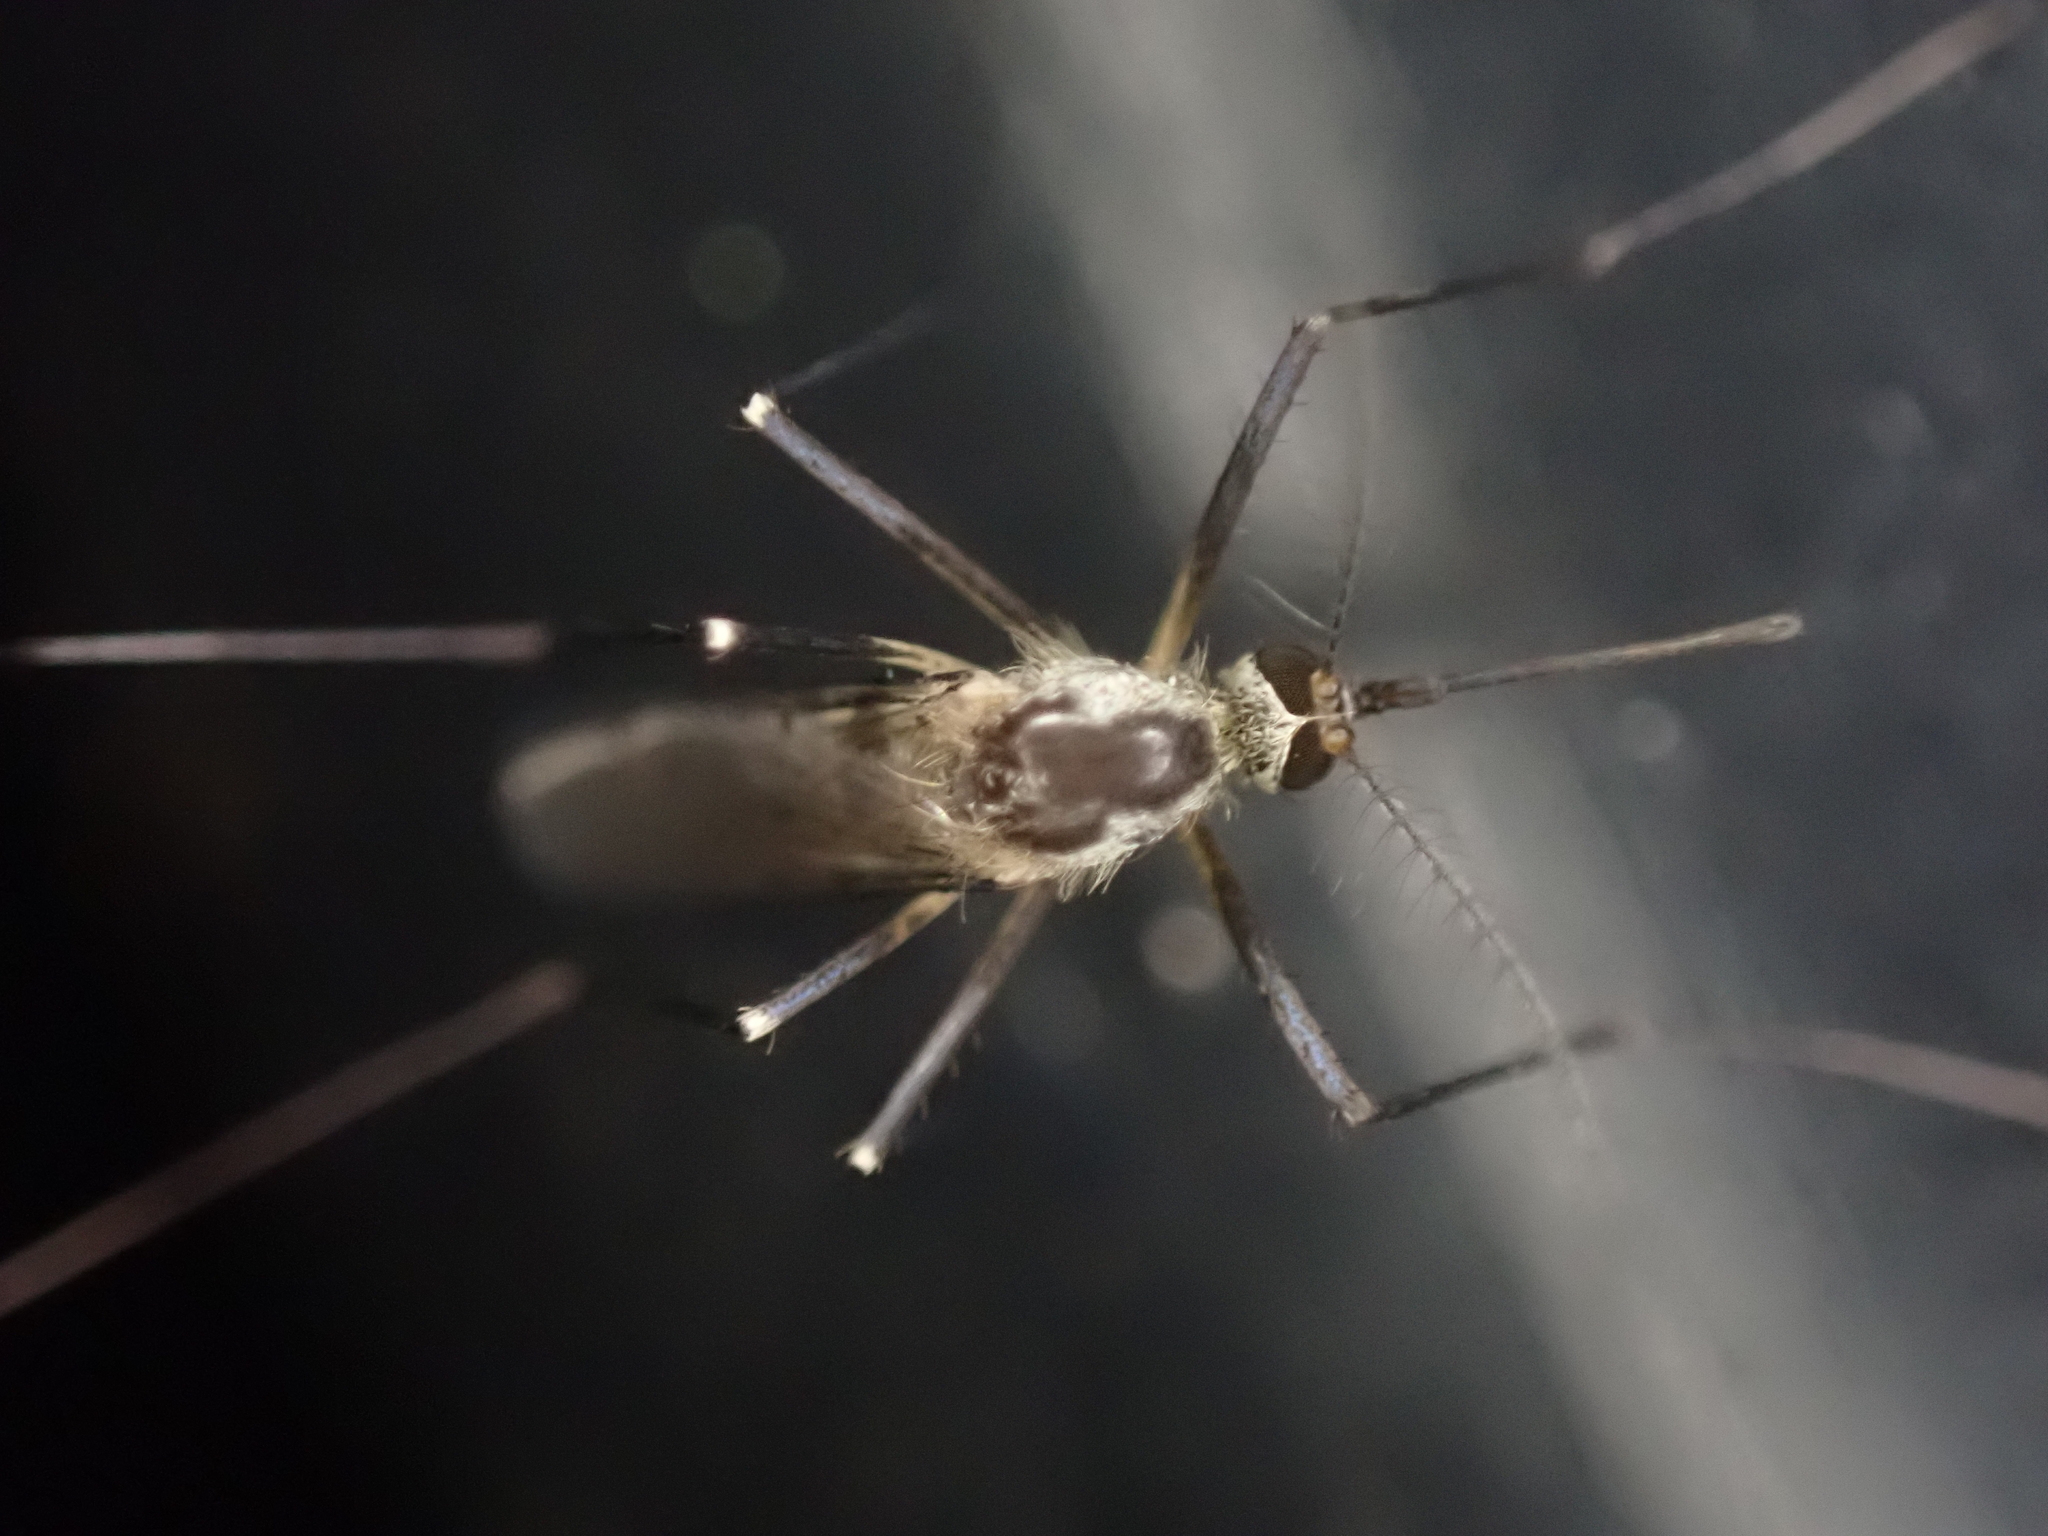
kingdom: Animalia
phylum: Arthropoda
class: Insecta
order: Diptera
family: Culicidae
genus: Aedes
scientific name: Aedes triseriatus
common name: Eastern treehole mosquito
